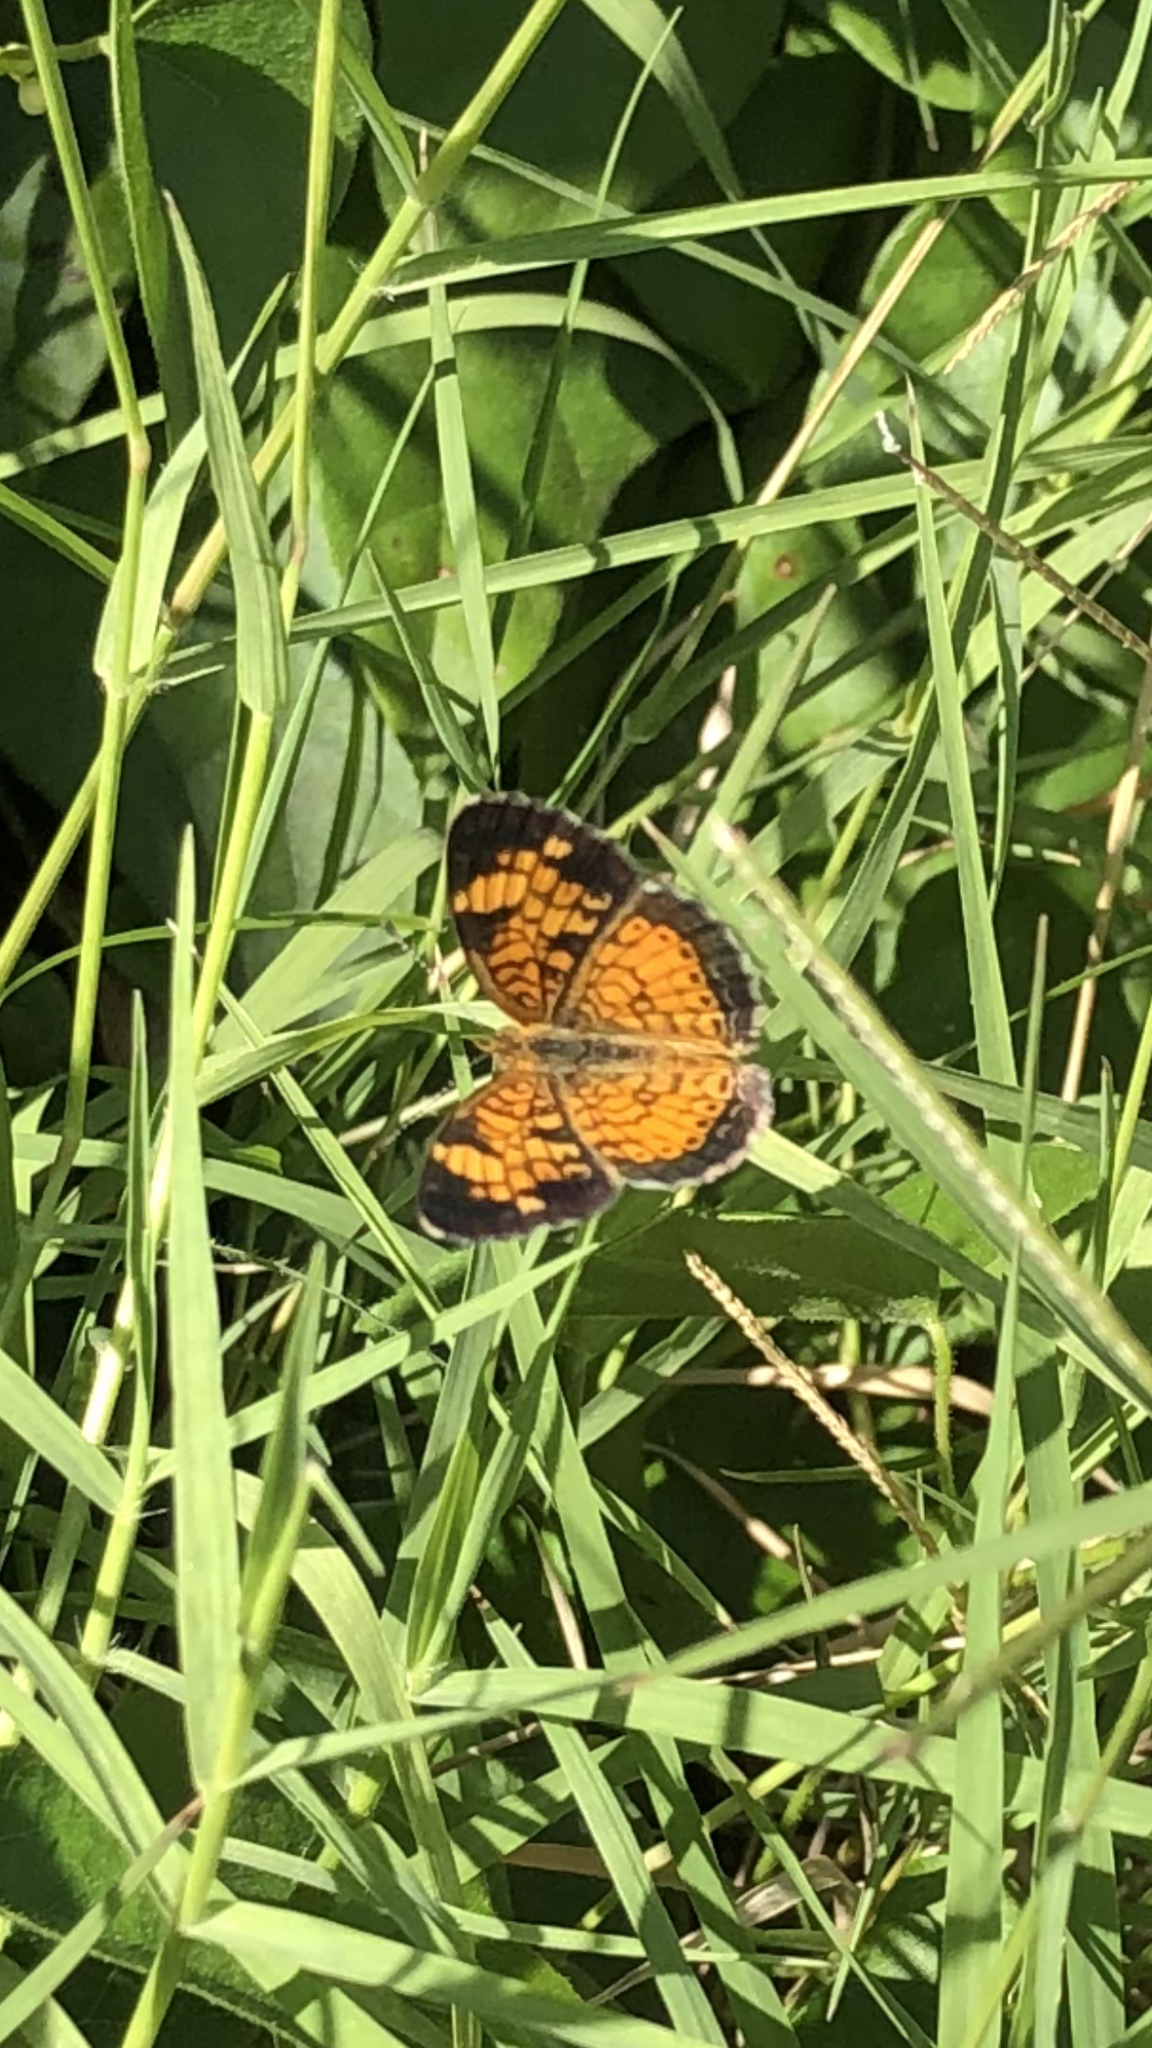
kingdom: Animalia
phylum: Arthropoda
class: Insecta
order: Lepidoptera
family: Nymphalidae
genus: Phyciodes
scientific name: Phyciodes tharos
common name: Pearl crescent
